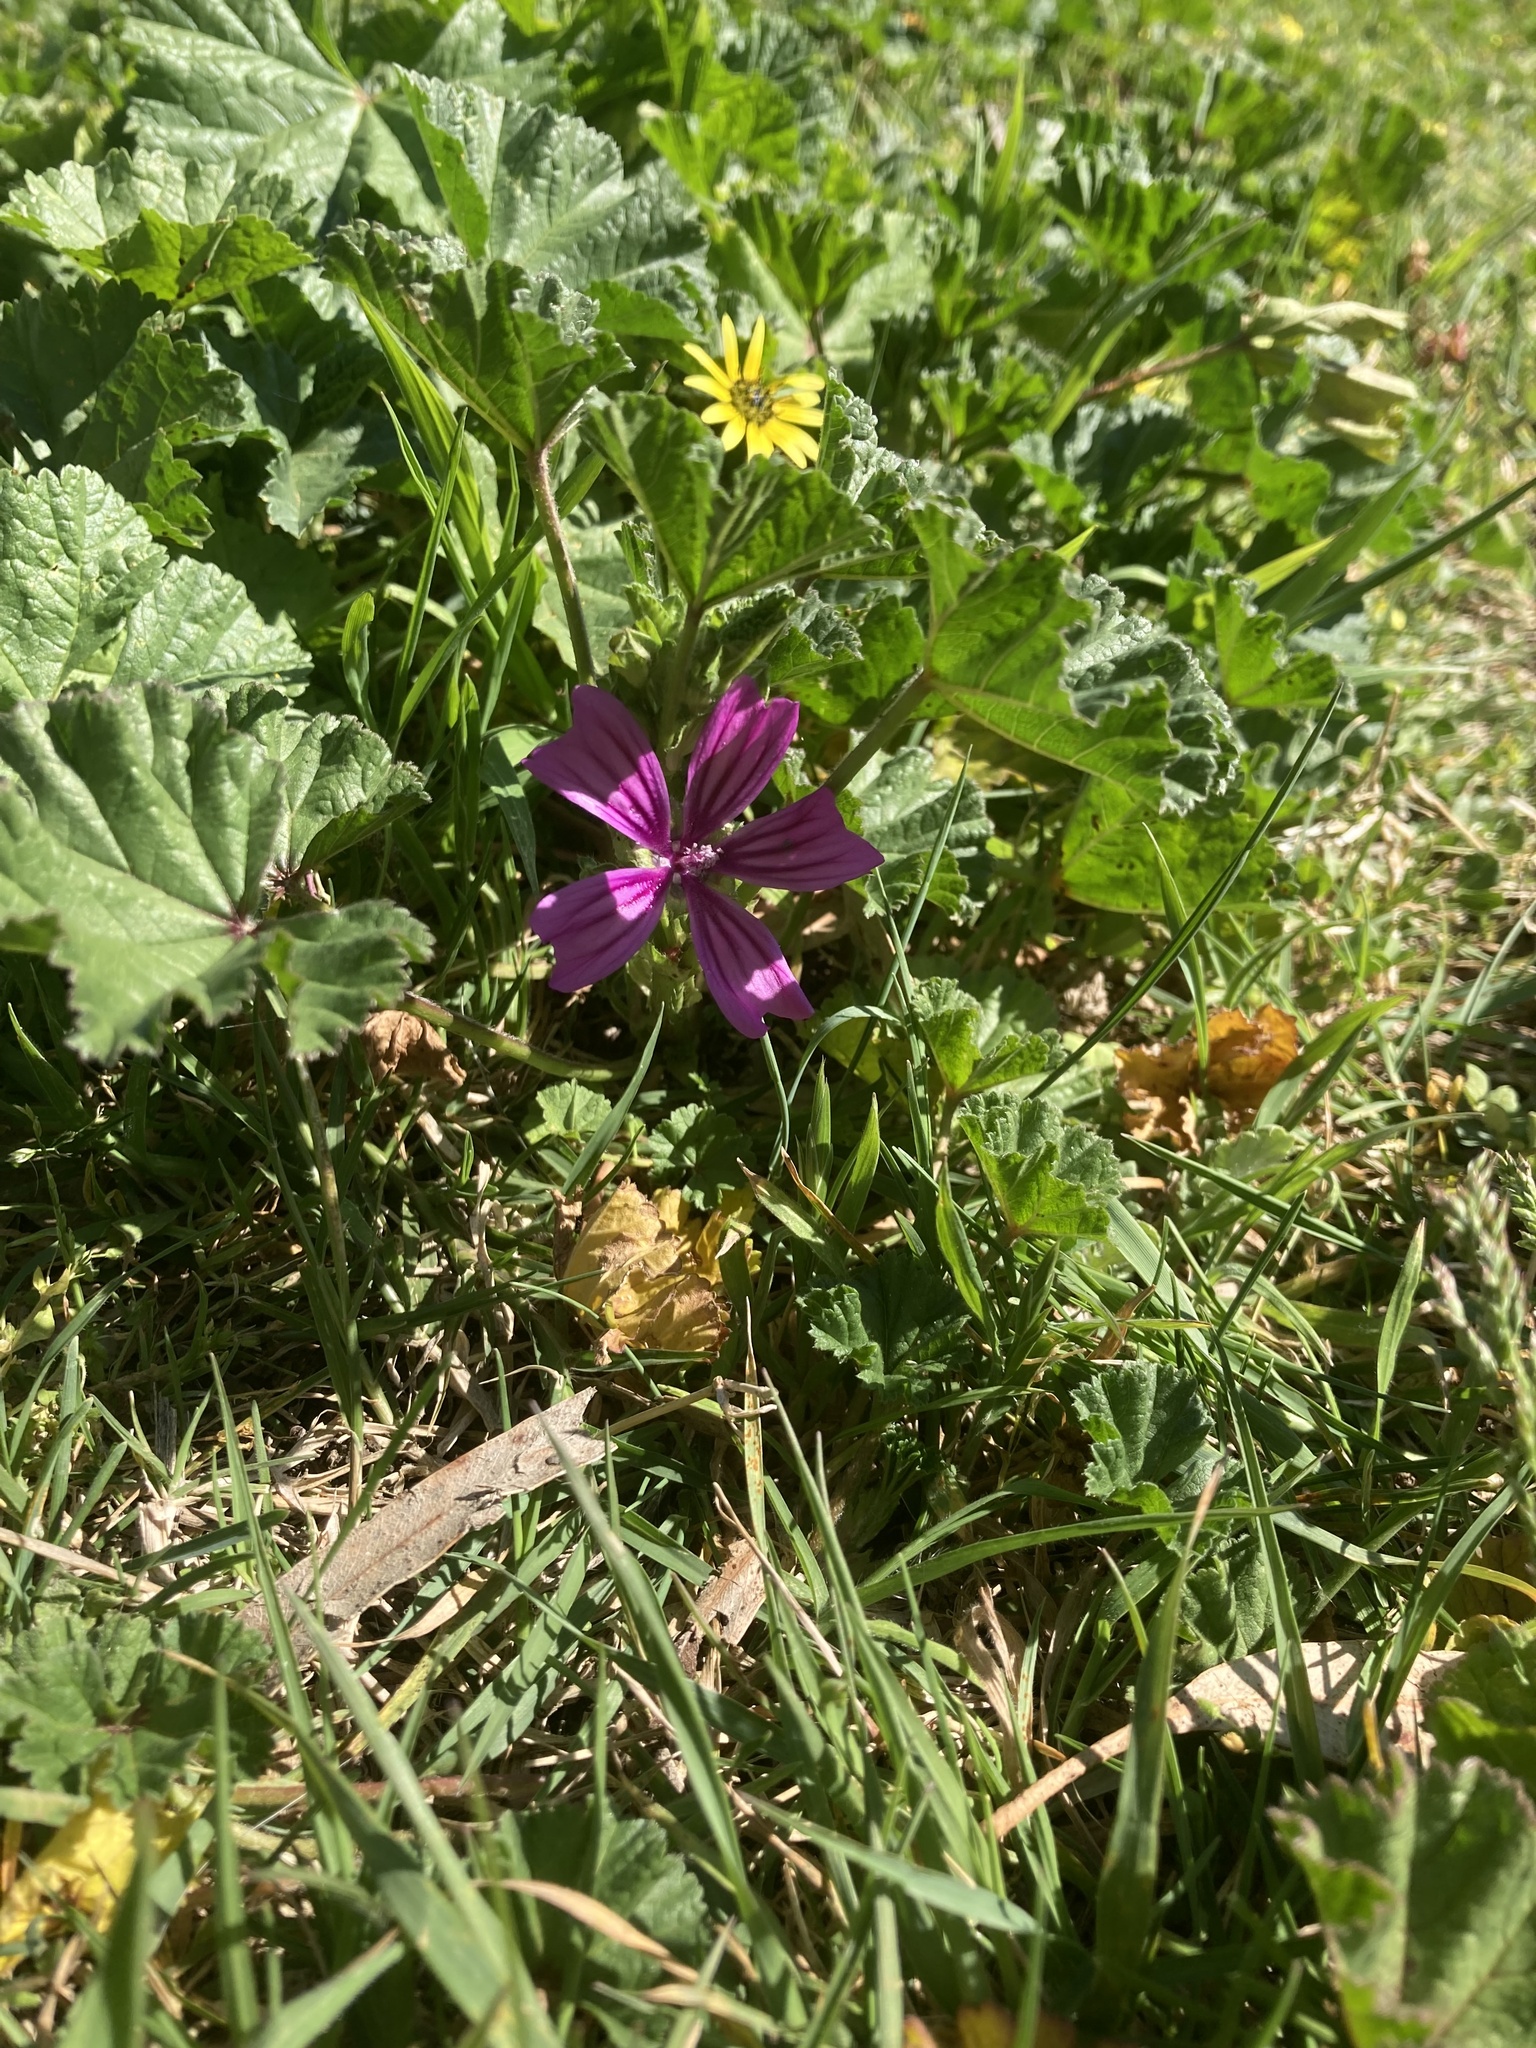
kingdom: Plantae
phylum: Tracheophyta
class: Magnoliopsida
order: Malvales
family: Malvaceae
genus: Malva
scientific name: Malva sylvestris
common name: Common mallow
